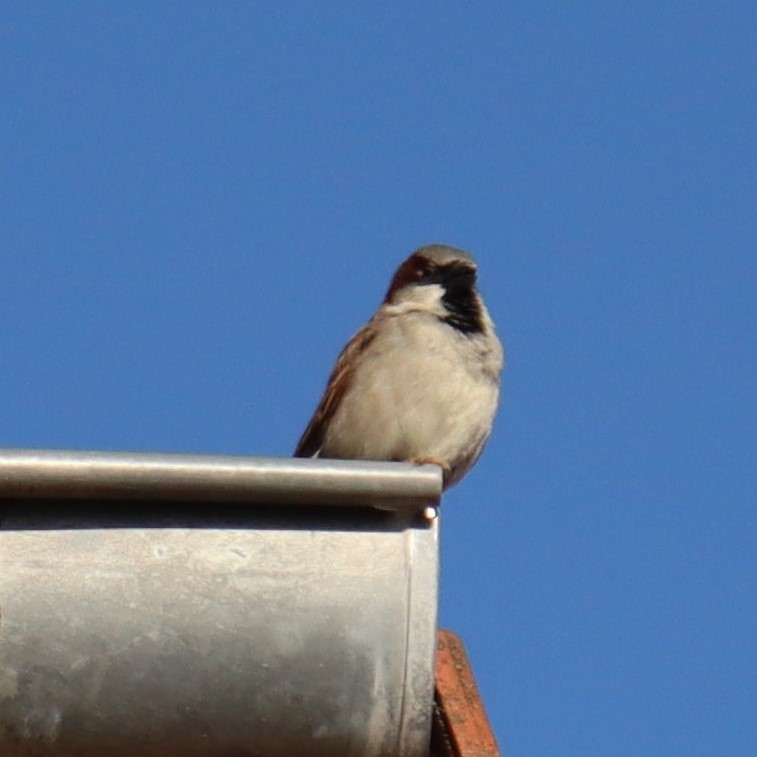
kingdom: Animalia
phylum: Chordata
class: Aves
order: Passeriformes
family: Passeridae
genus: Passer
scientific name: Passer domesticus
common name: House sparrow
